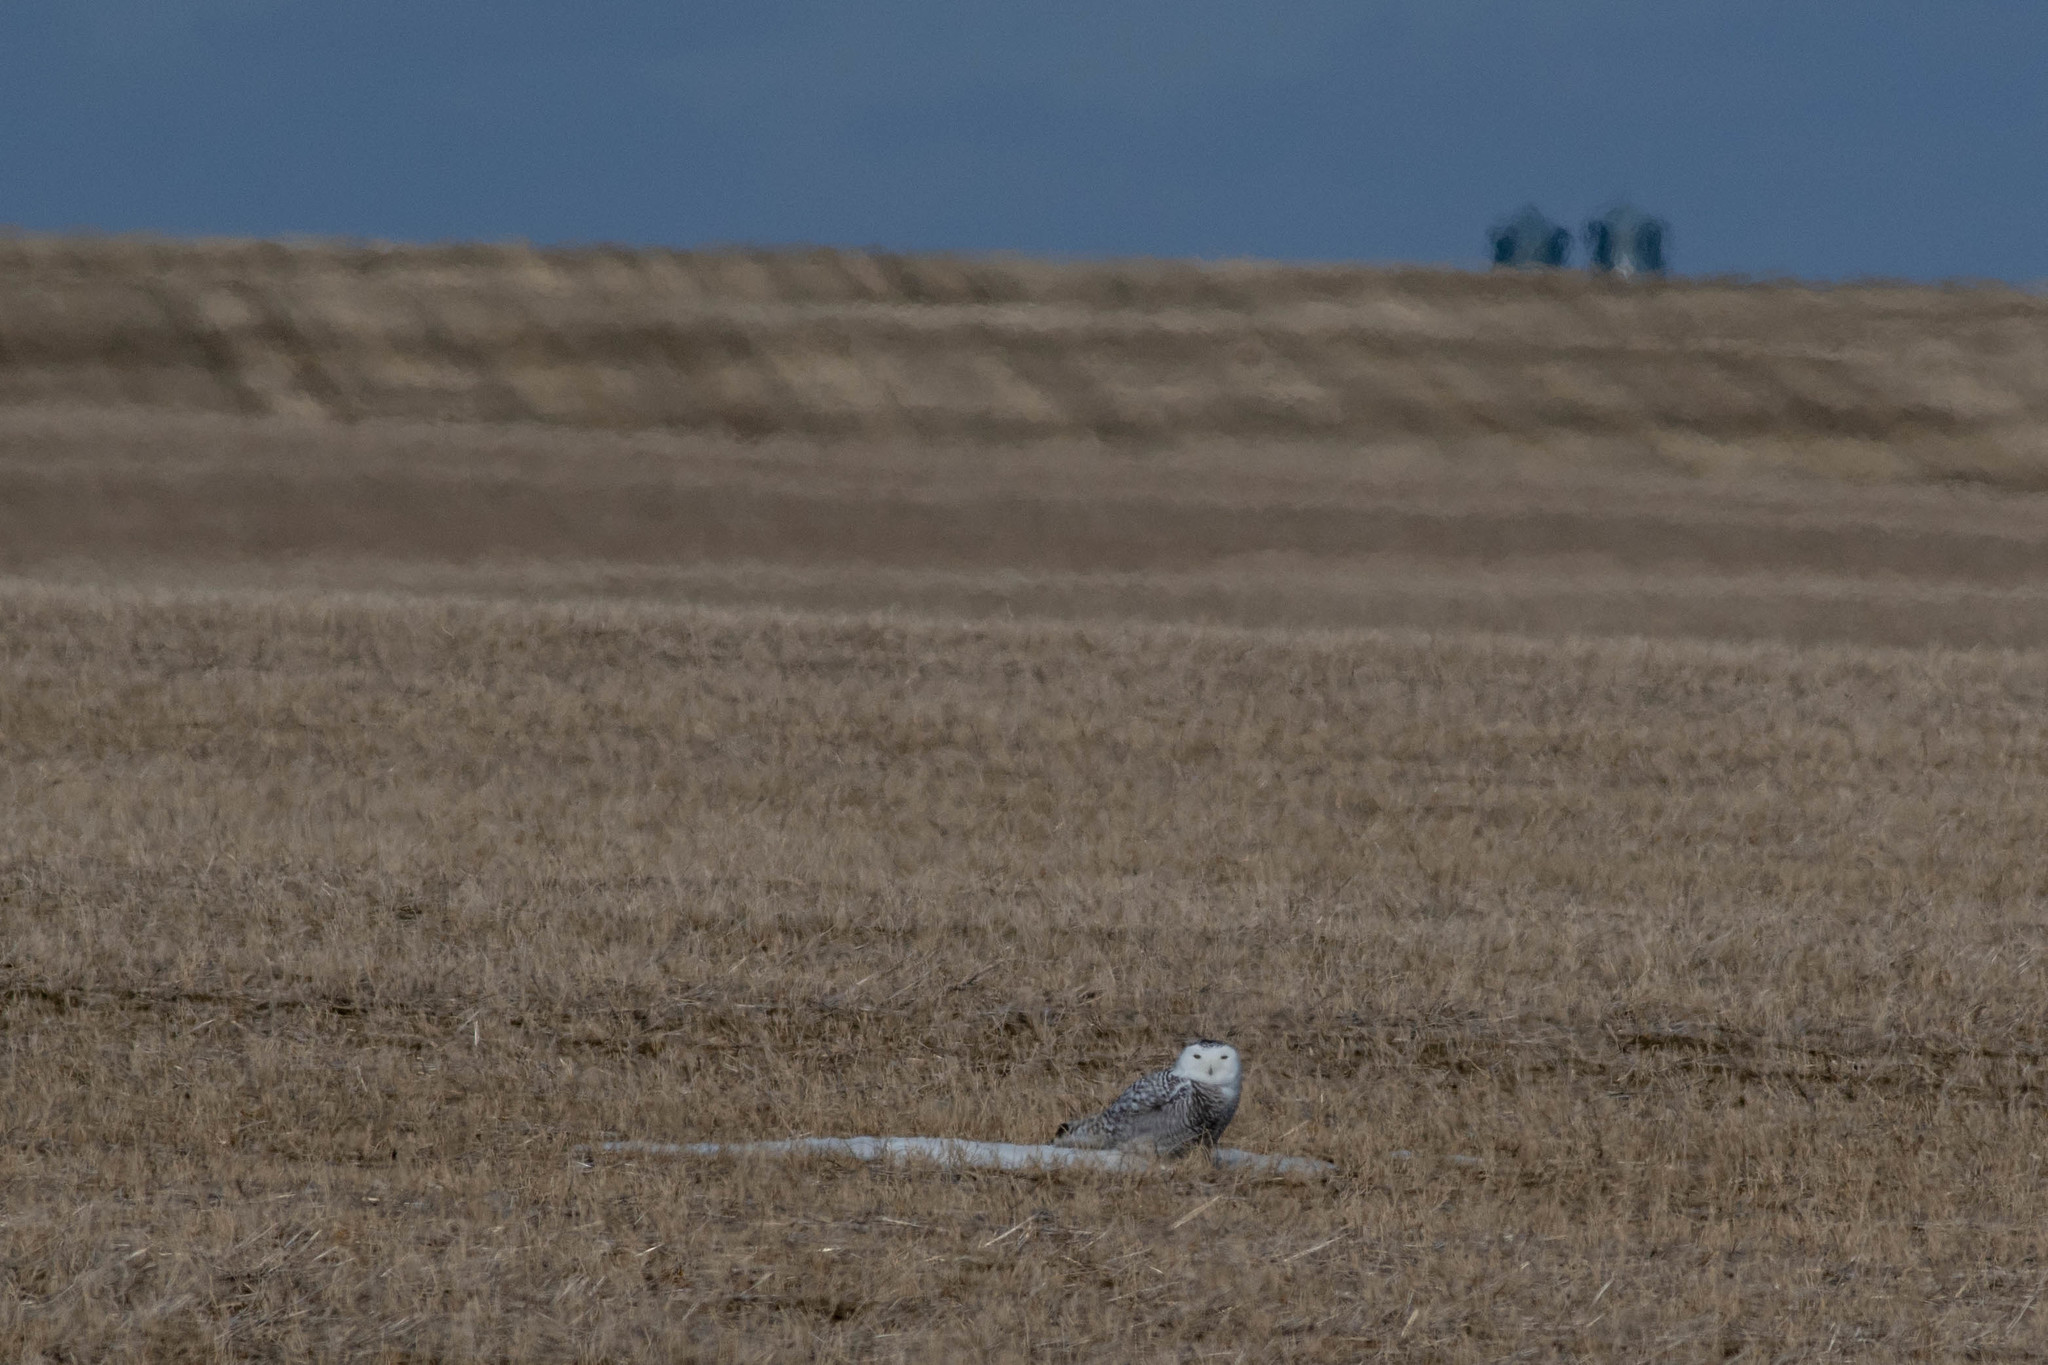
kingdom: Animalia
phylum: Chordata
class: Aves
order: Strigiformes
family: Strigidae
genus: Bubo
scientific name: Bubo scandiacus
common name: Snowy owl
